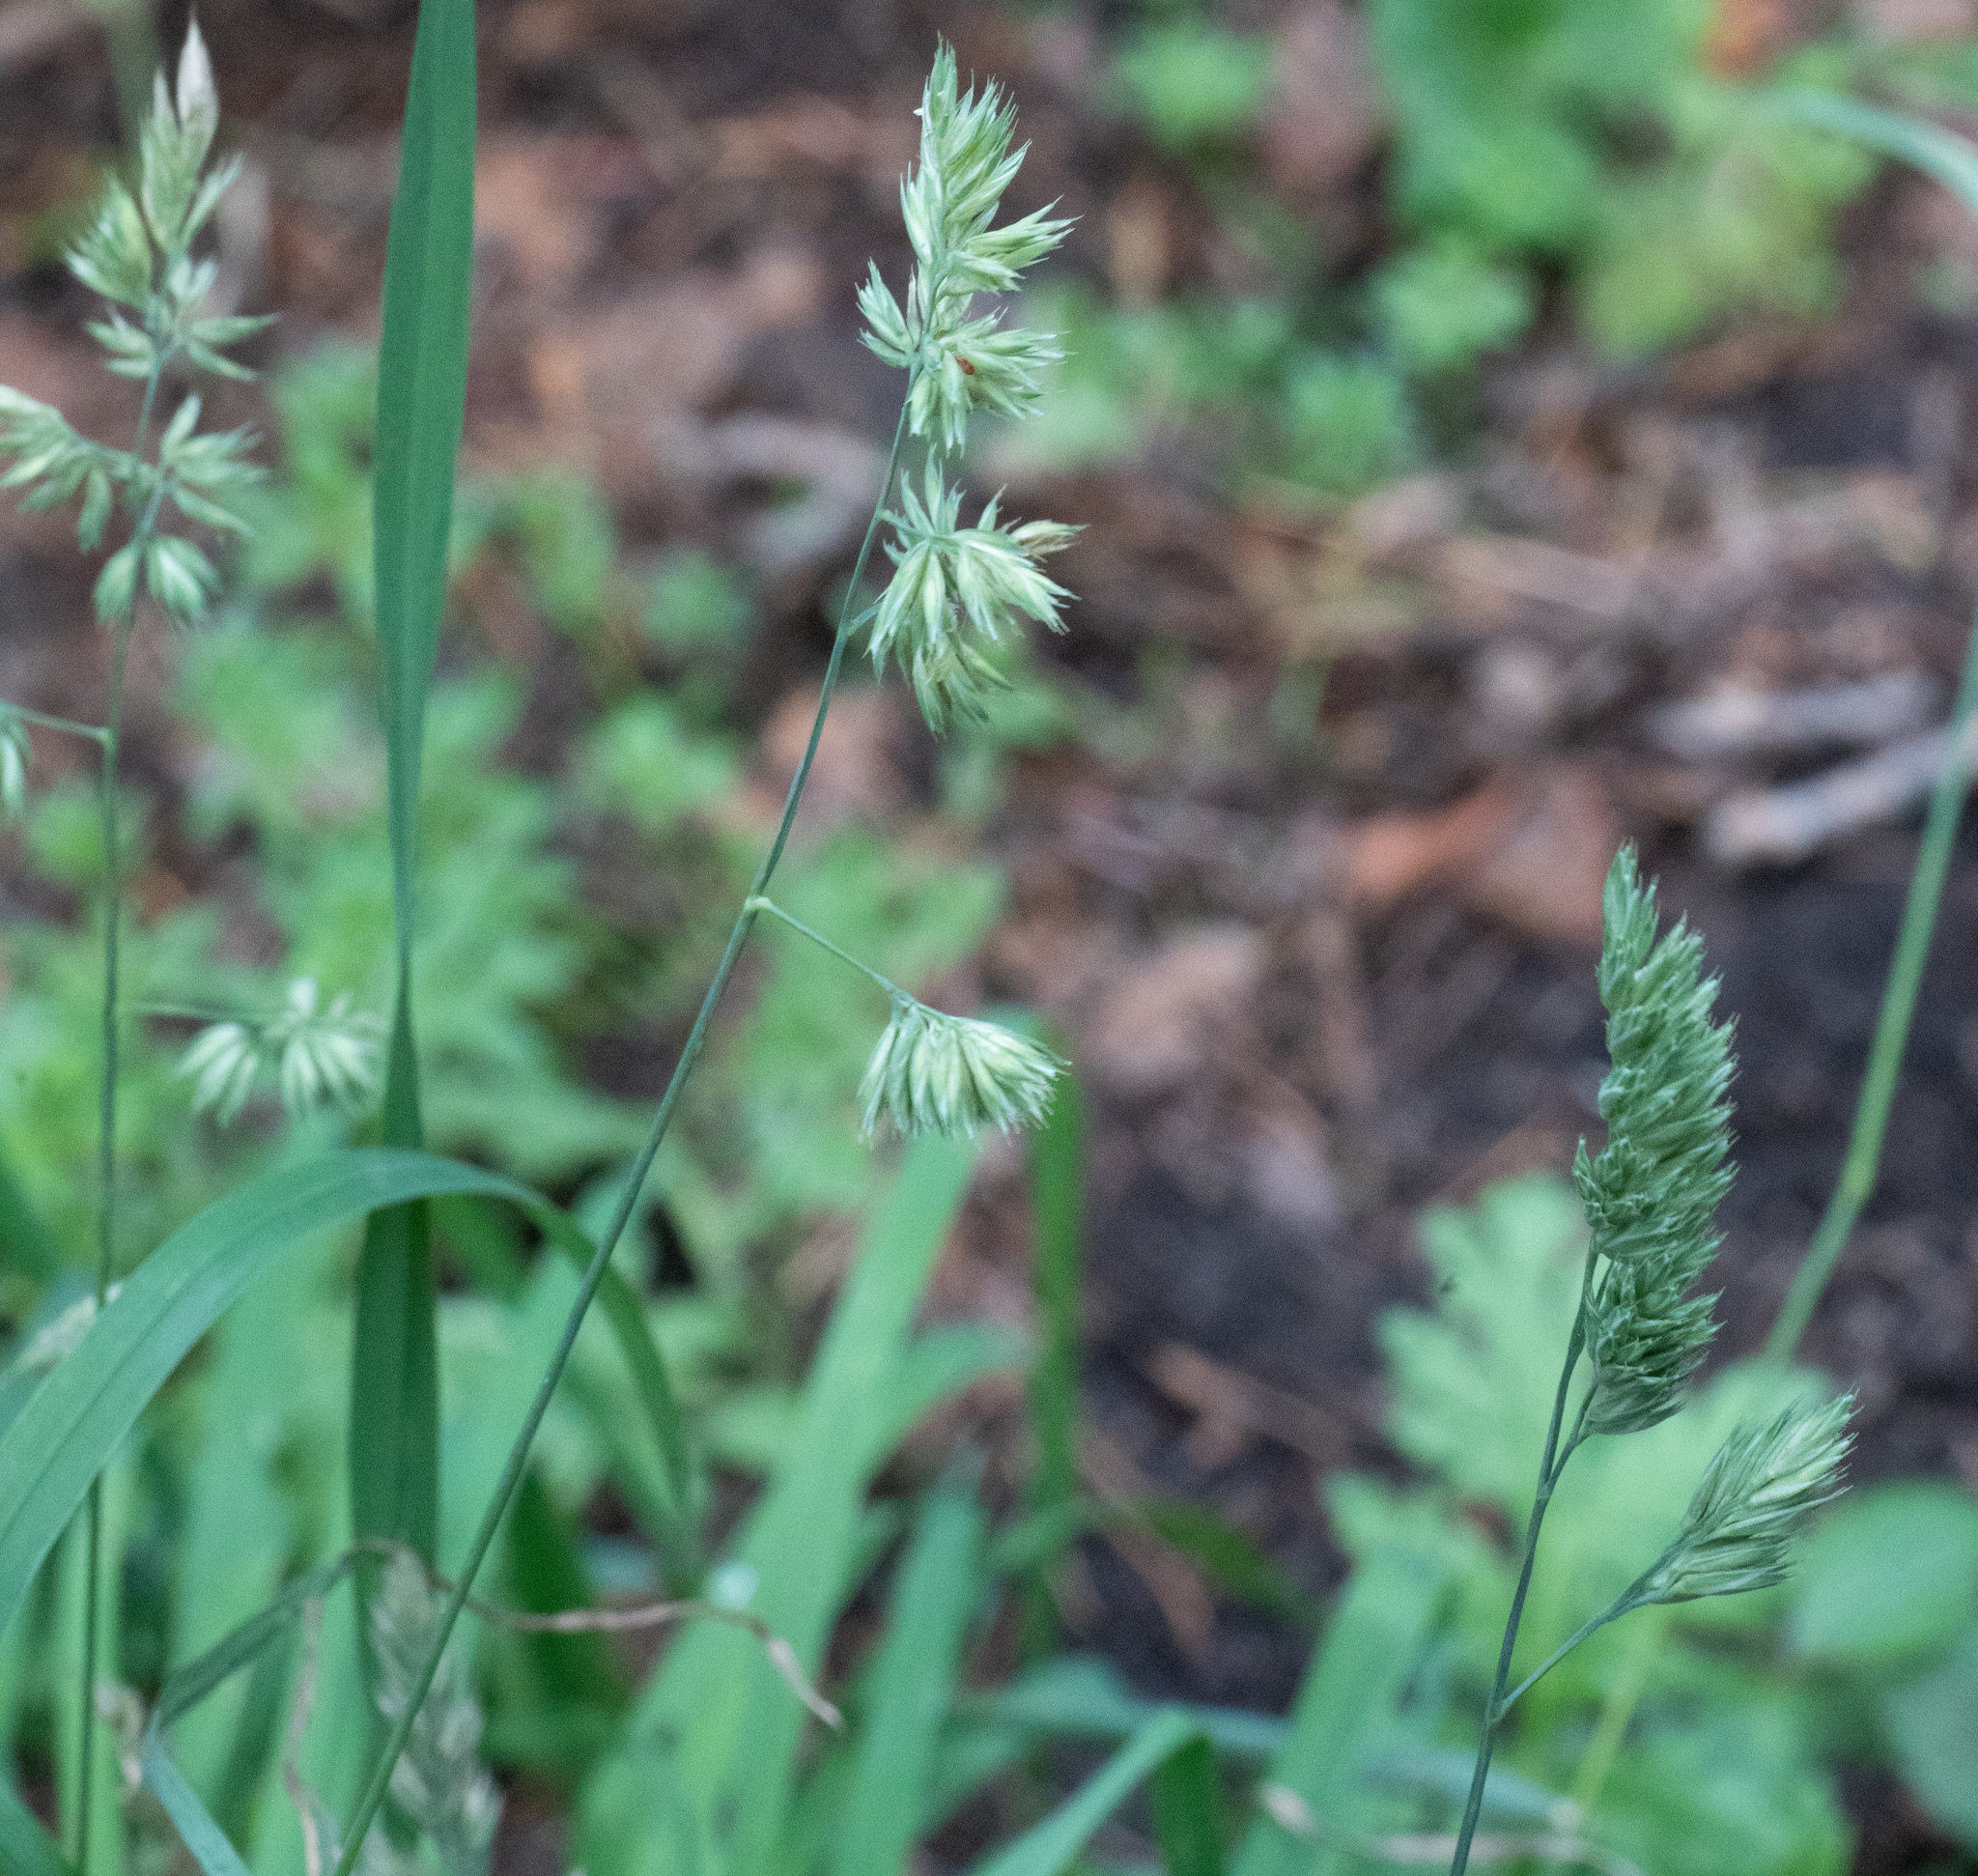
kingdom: Plantae
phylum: Tracheophyta
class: Liliopsida
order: Poales
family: Poaceae
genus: Dactylis
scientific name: Dactylis glomerata
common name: Orchardgrass
